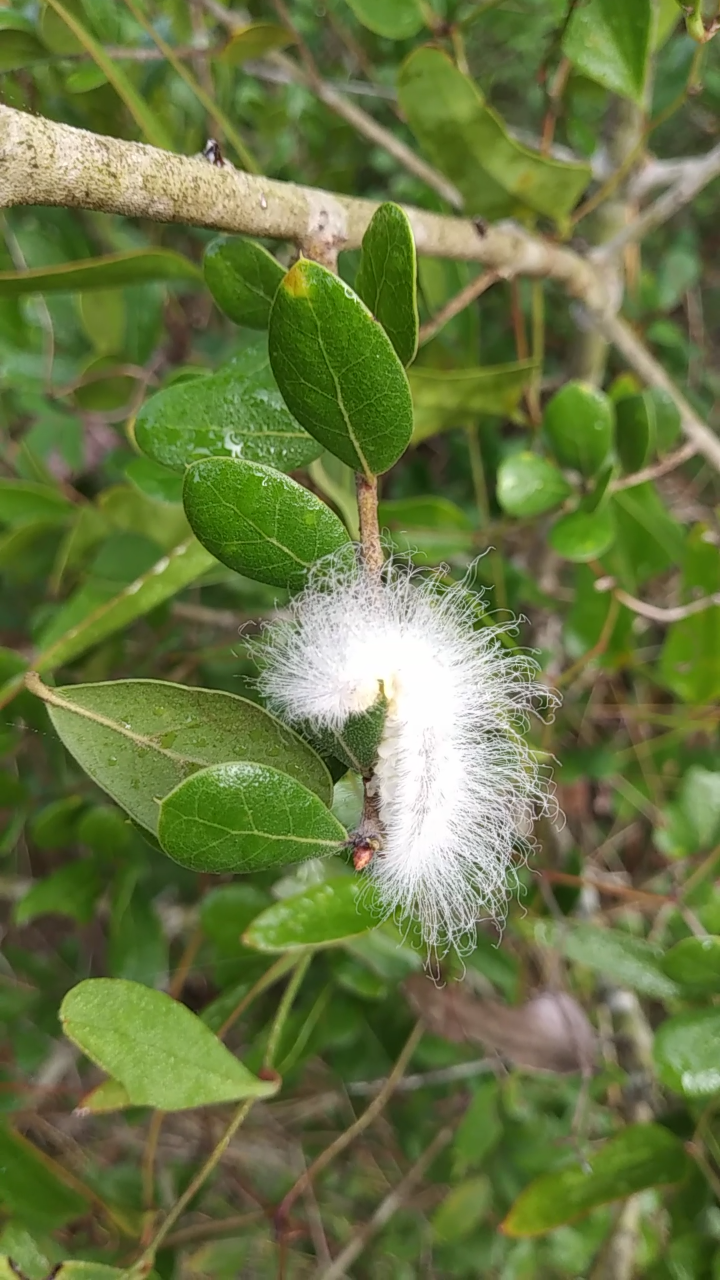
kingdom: Animalia
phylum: Arthropoda
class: Insecta
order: Lepidoptera
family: Megalopygidae
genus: Megalopyge
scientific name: Megalopyge
